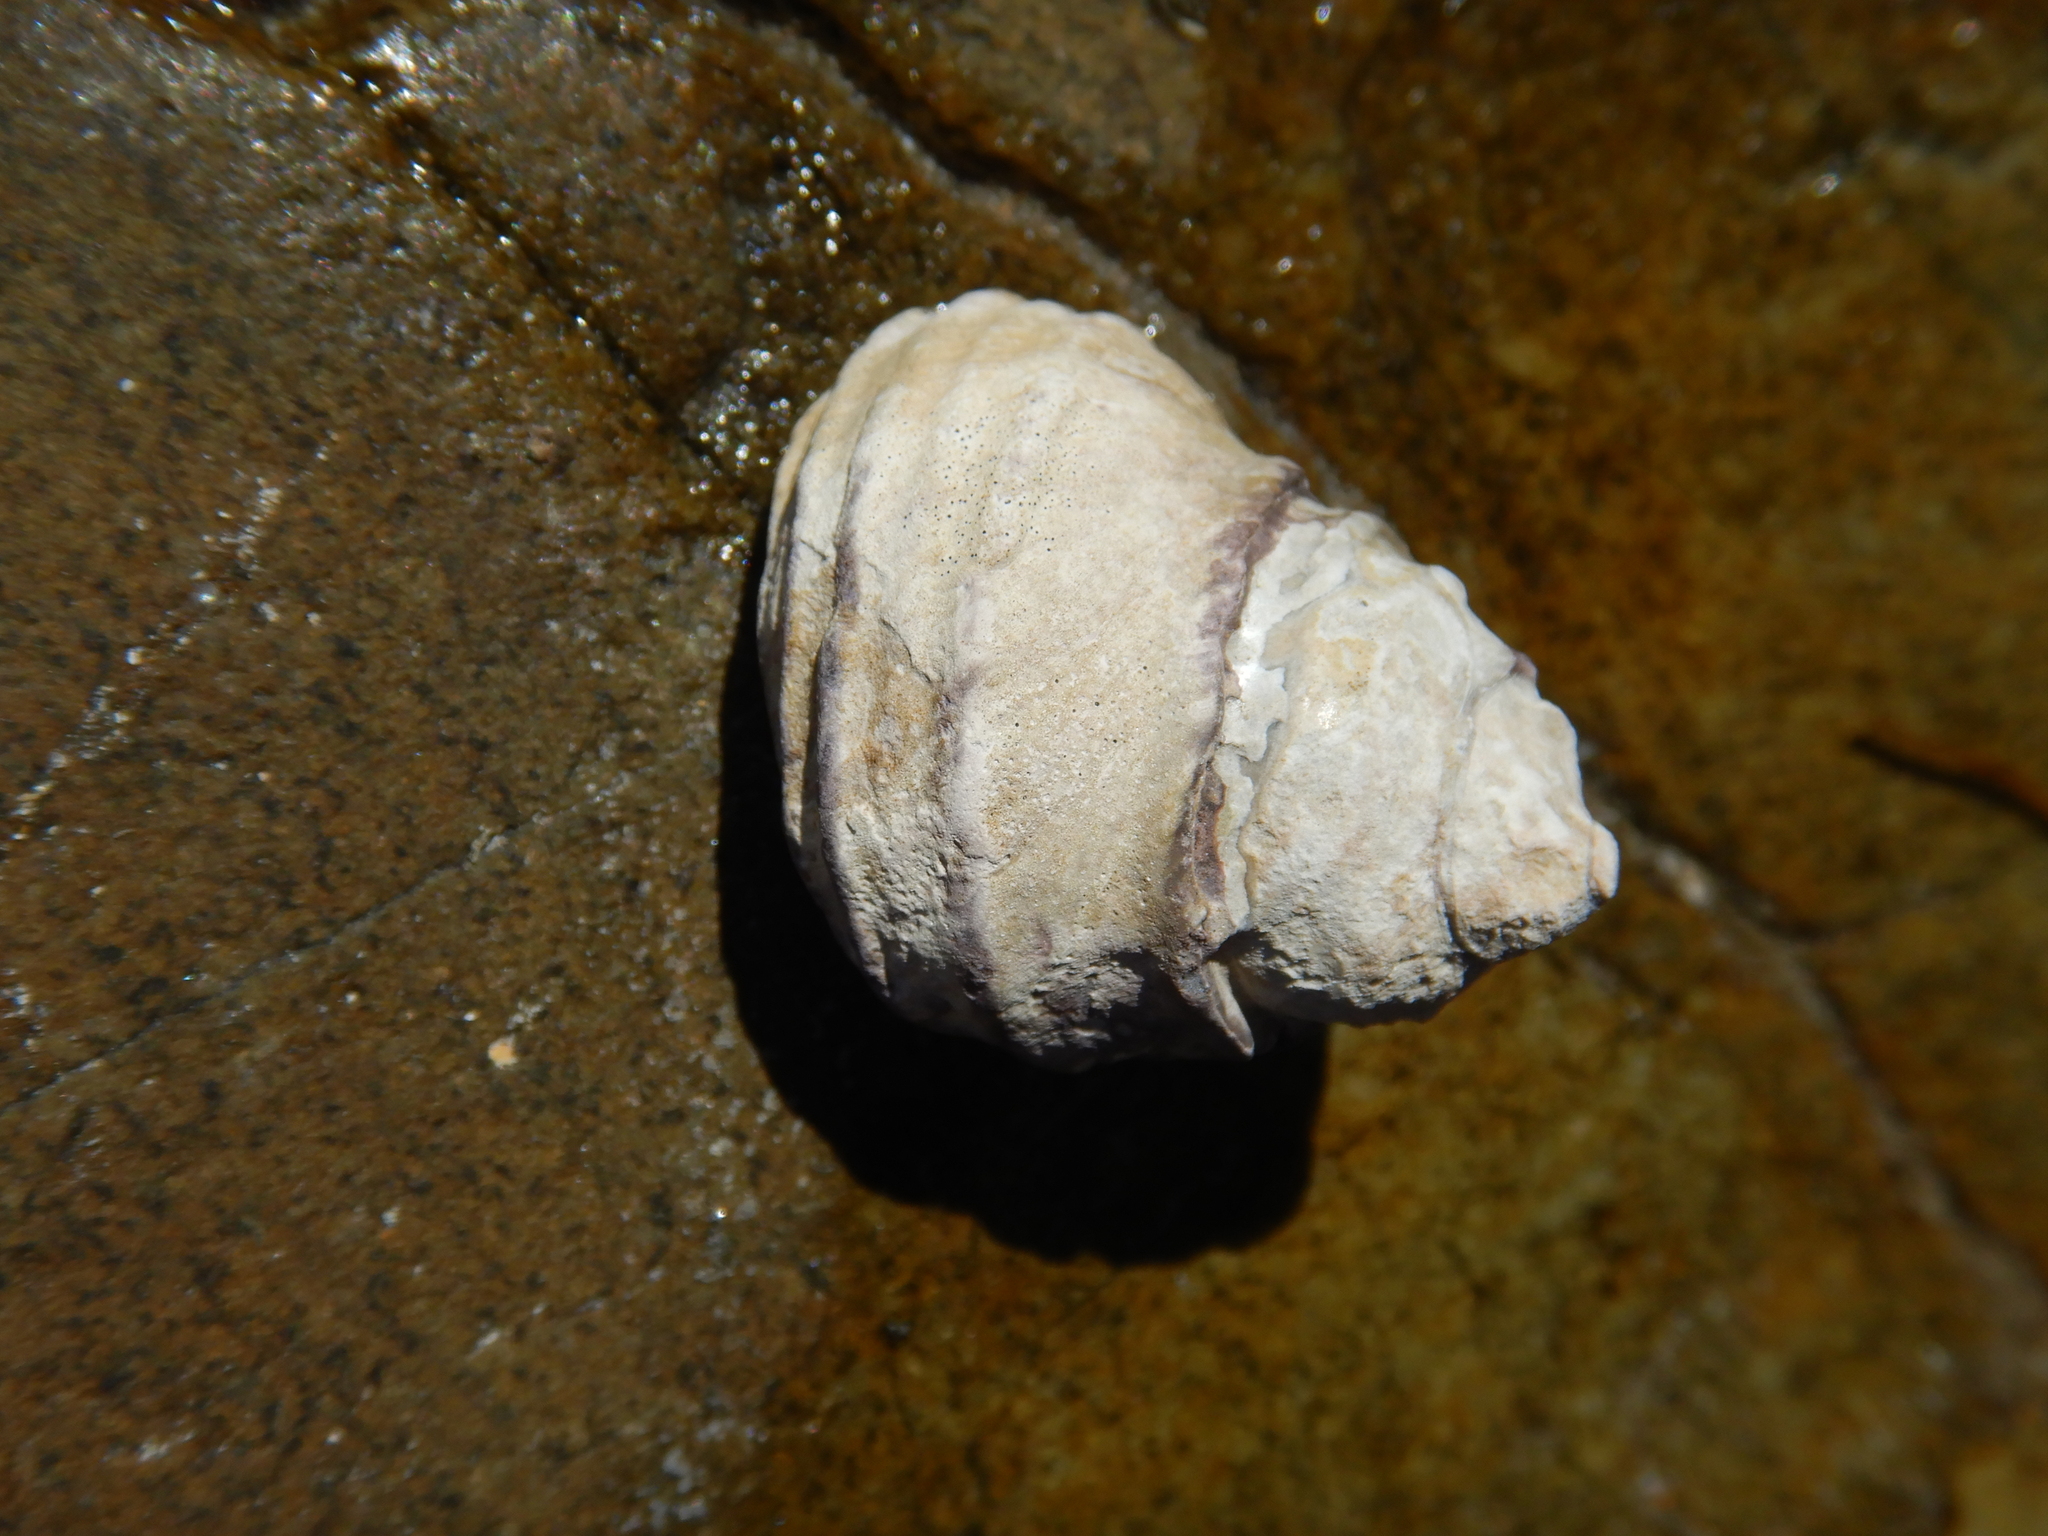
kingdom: Animalia
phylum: Mollusca
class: Gastropoda
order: Trochida
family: Trochidae
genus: Austrocochlea
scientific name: Austrocochlea constricta
